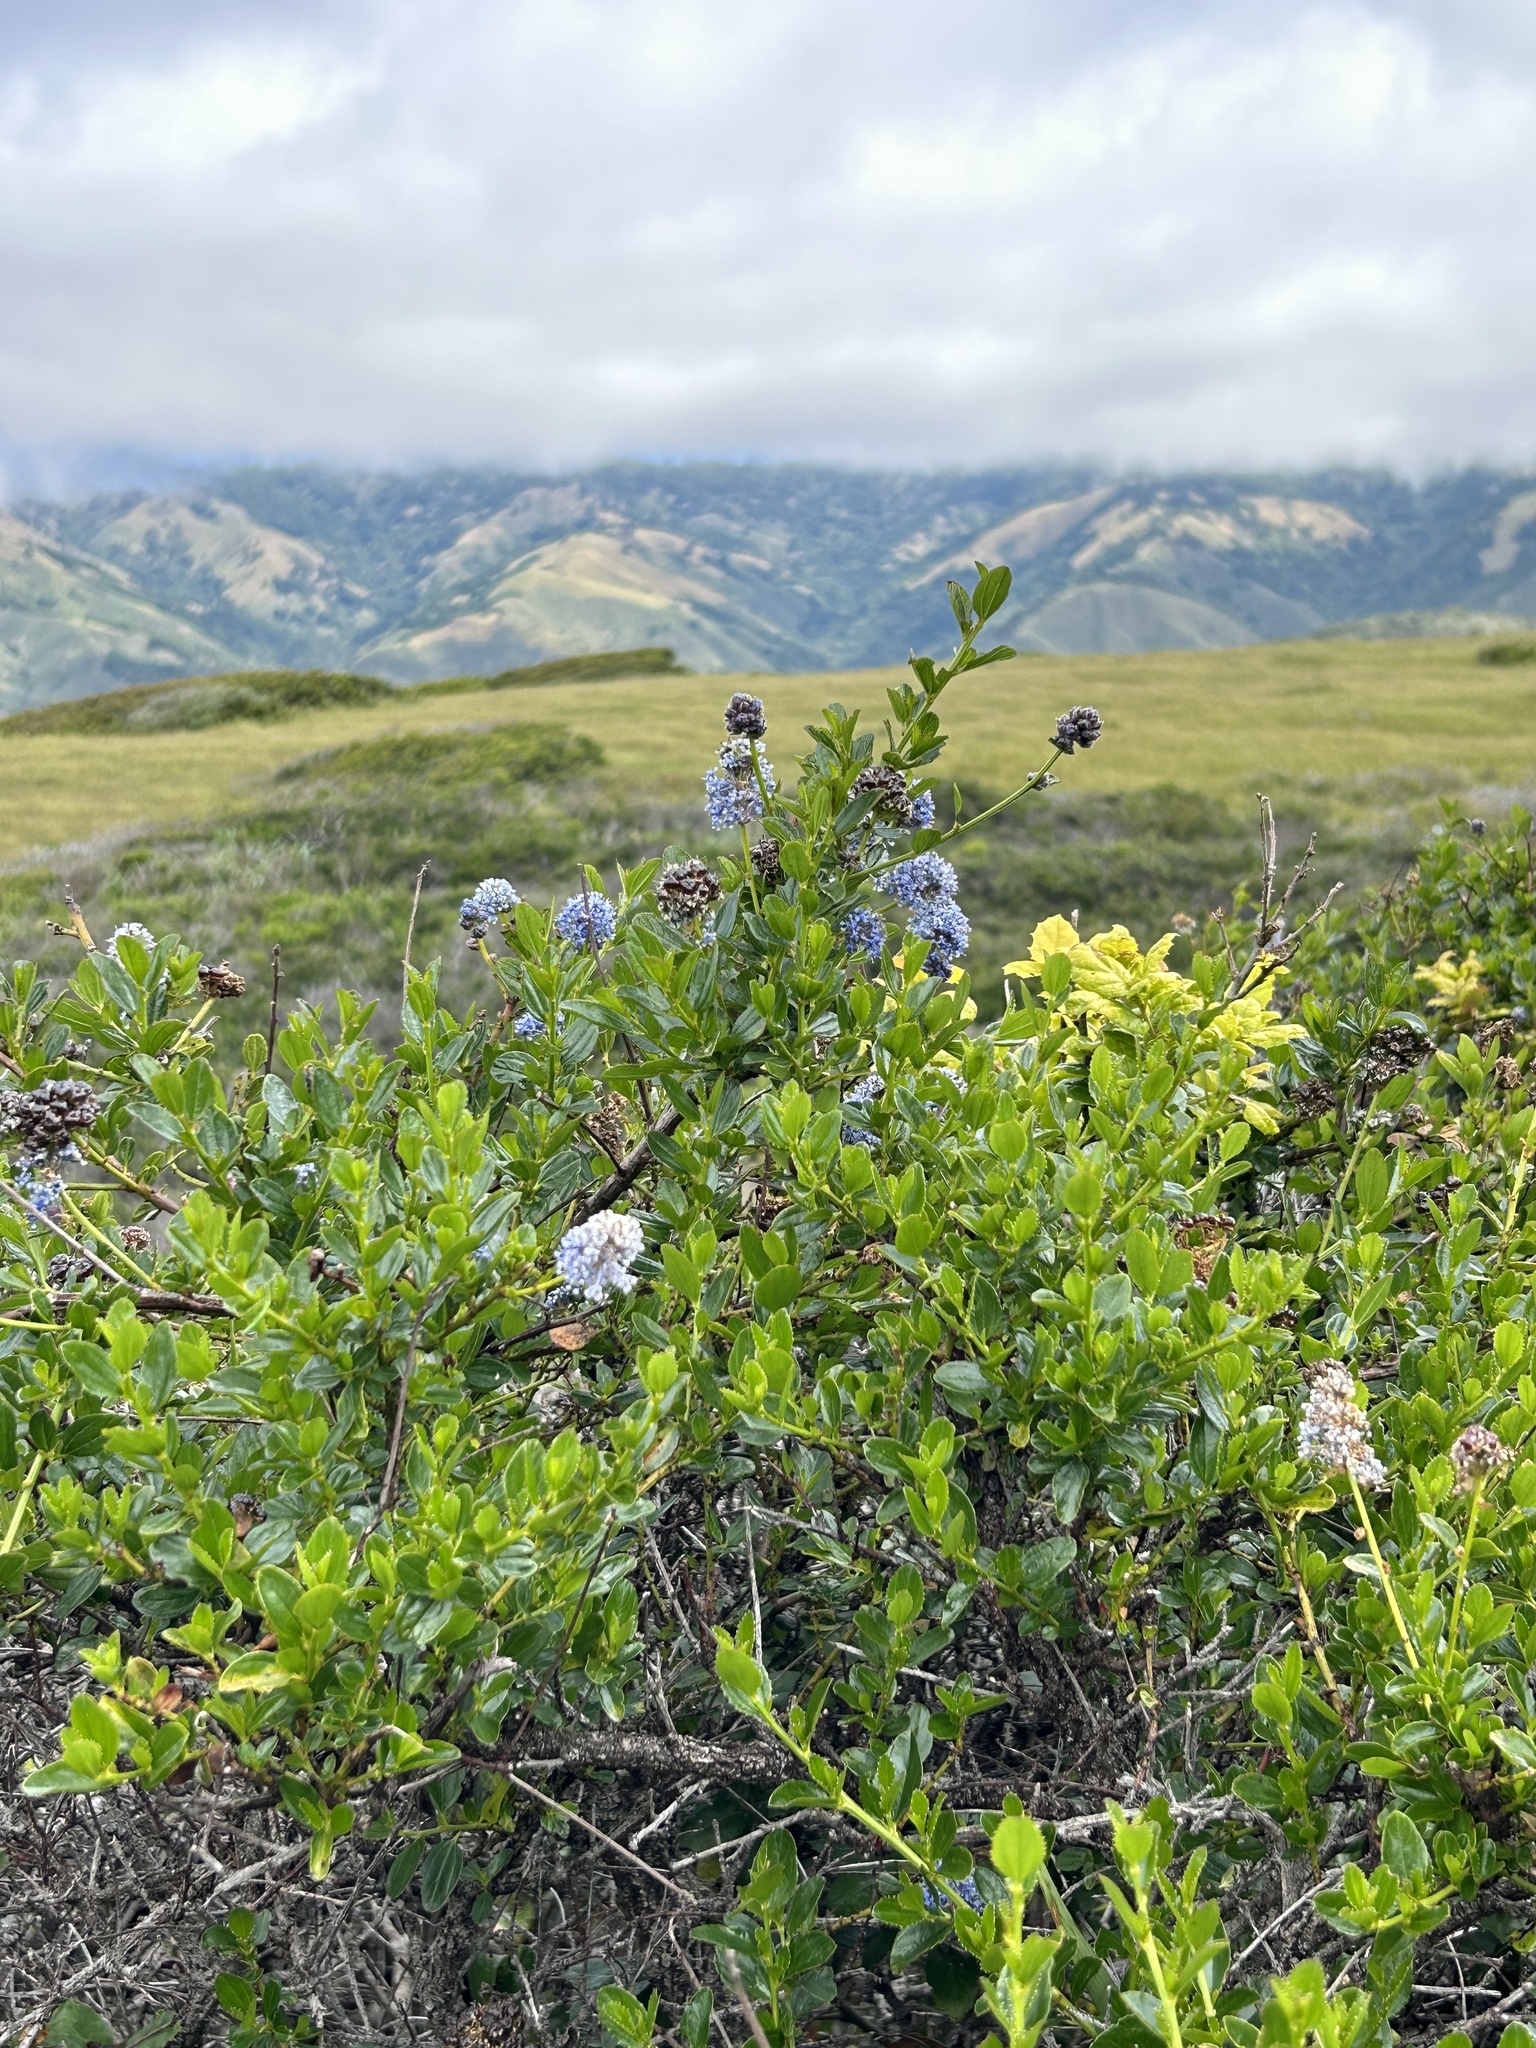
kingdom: Plantae
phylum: Tracheophyta
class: Magnoliopsida
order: Rosales
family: Rhamnaceae
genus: Ceanothus
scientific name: Ceanothus thyrsiflorus
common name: California-lilac
